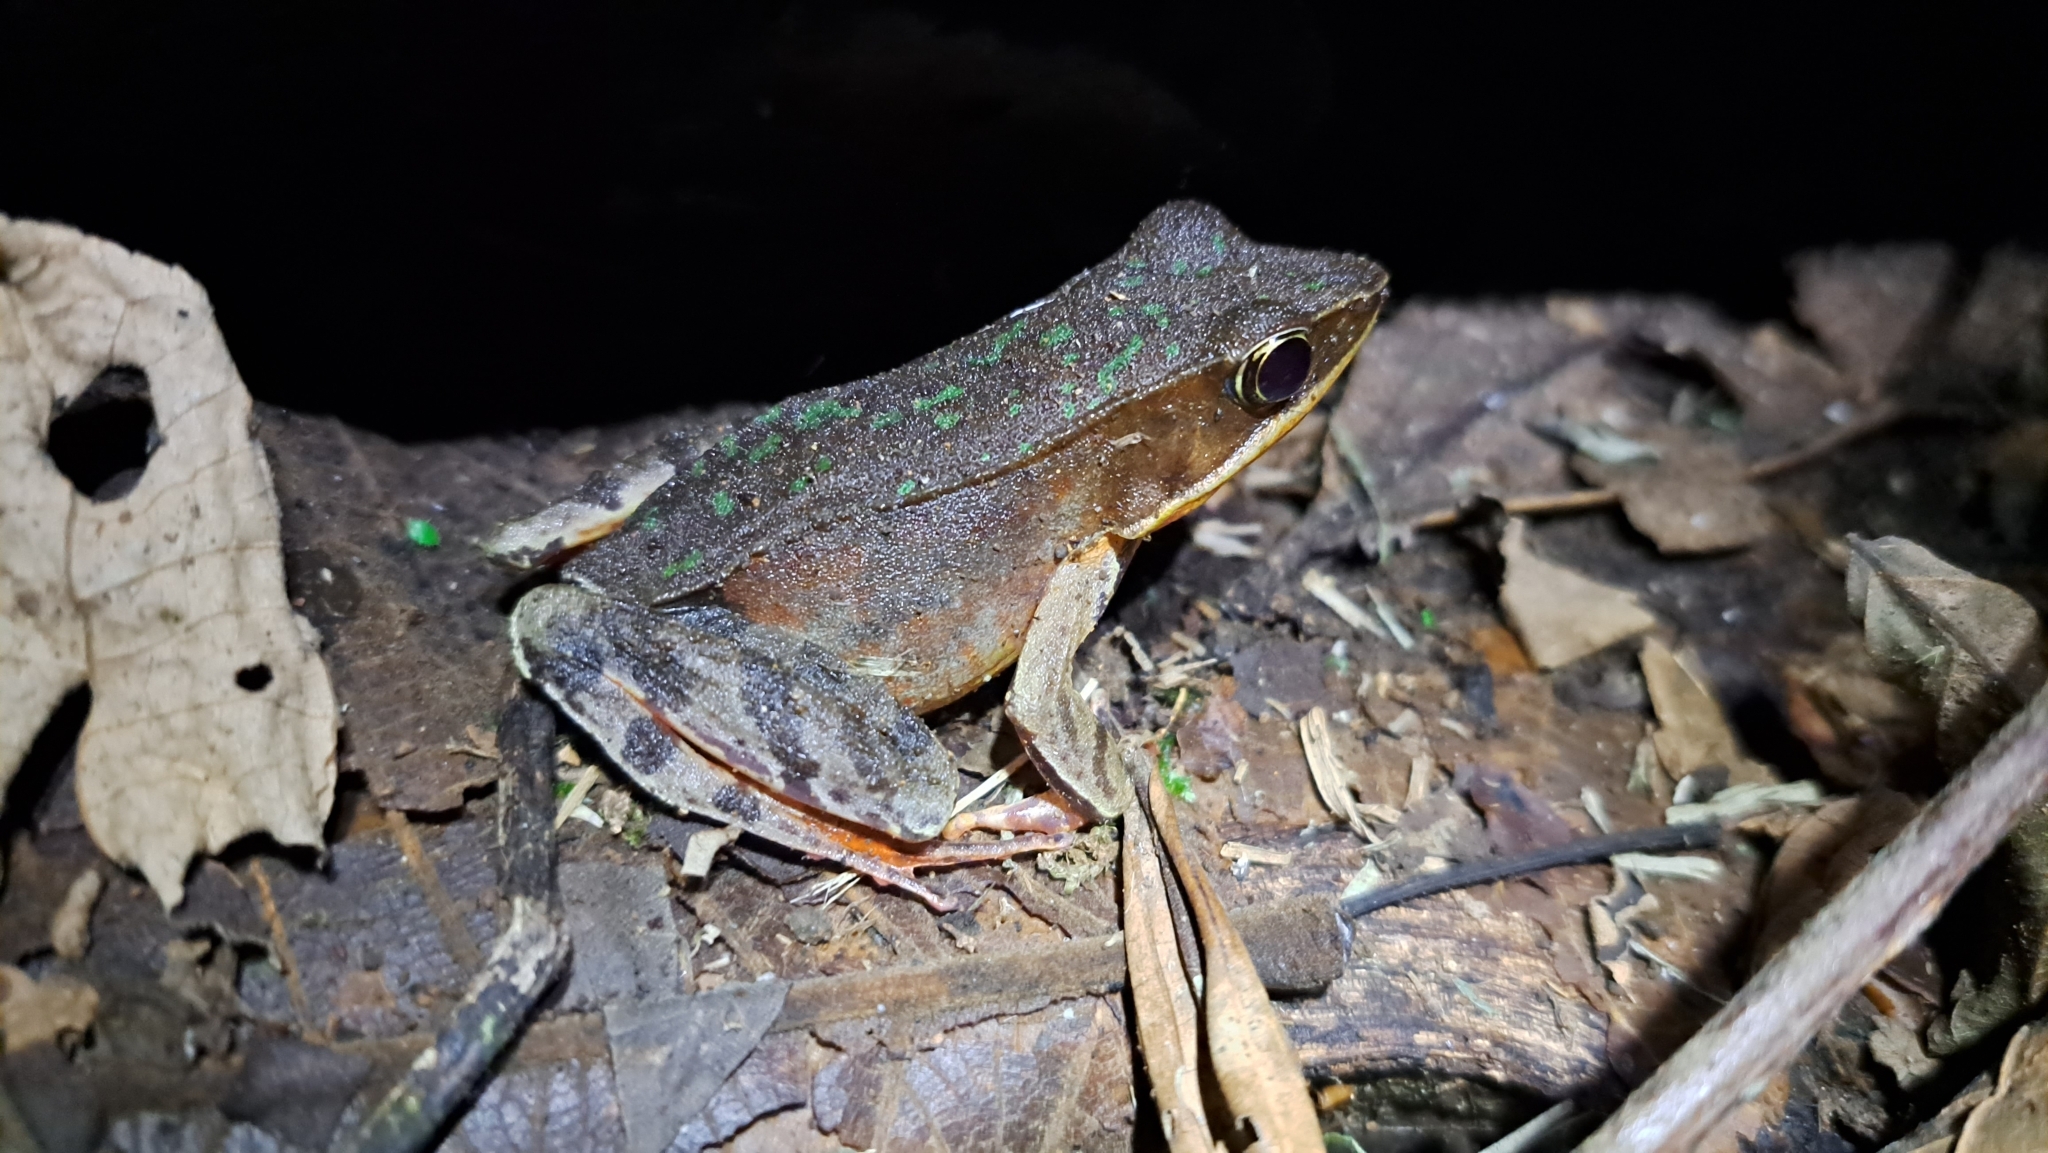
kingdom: Animalia
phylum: Chordata
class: Amphibia
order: Anura
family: Ranidae
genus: Lithobates
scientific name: Lithobates warszewitschii
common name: Warszewitsch's frog
